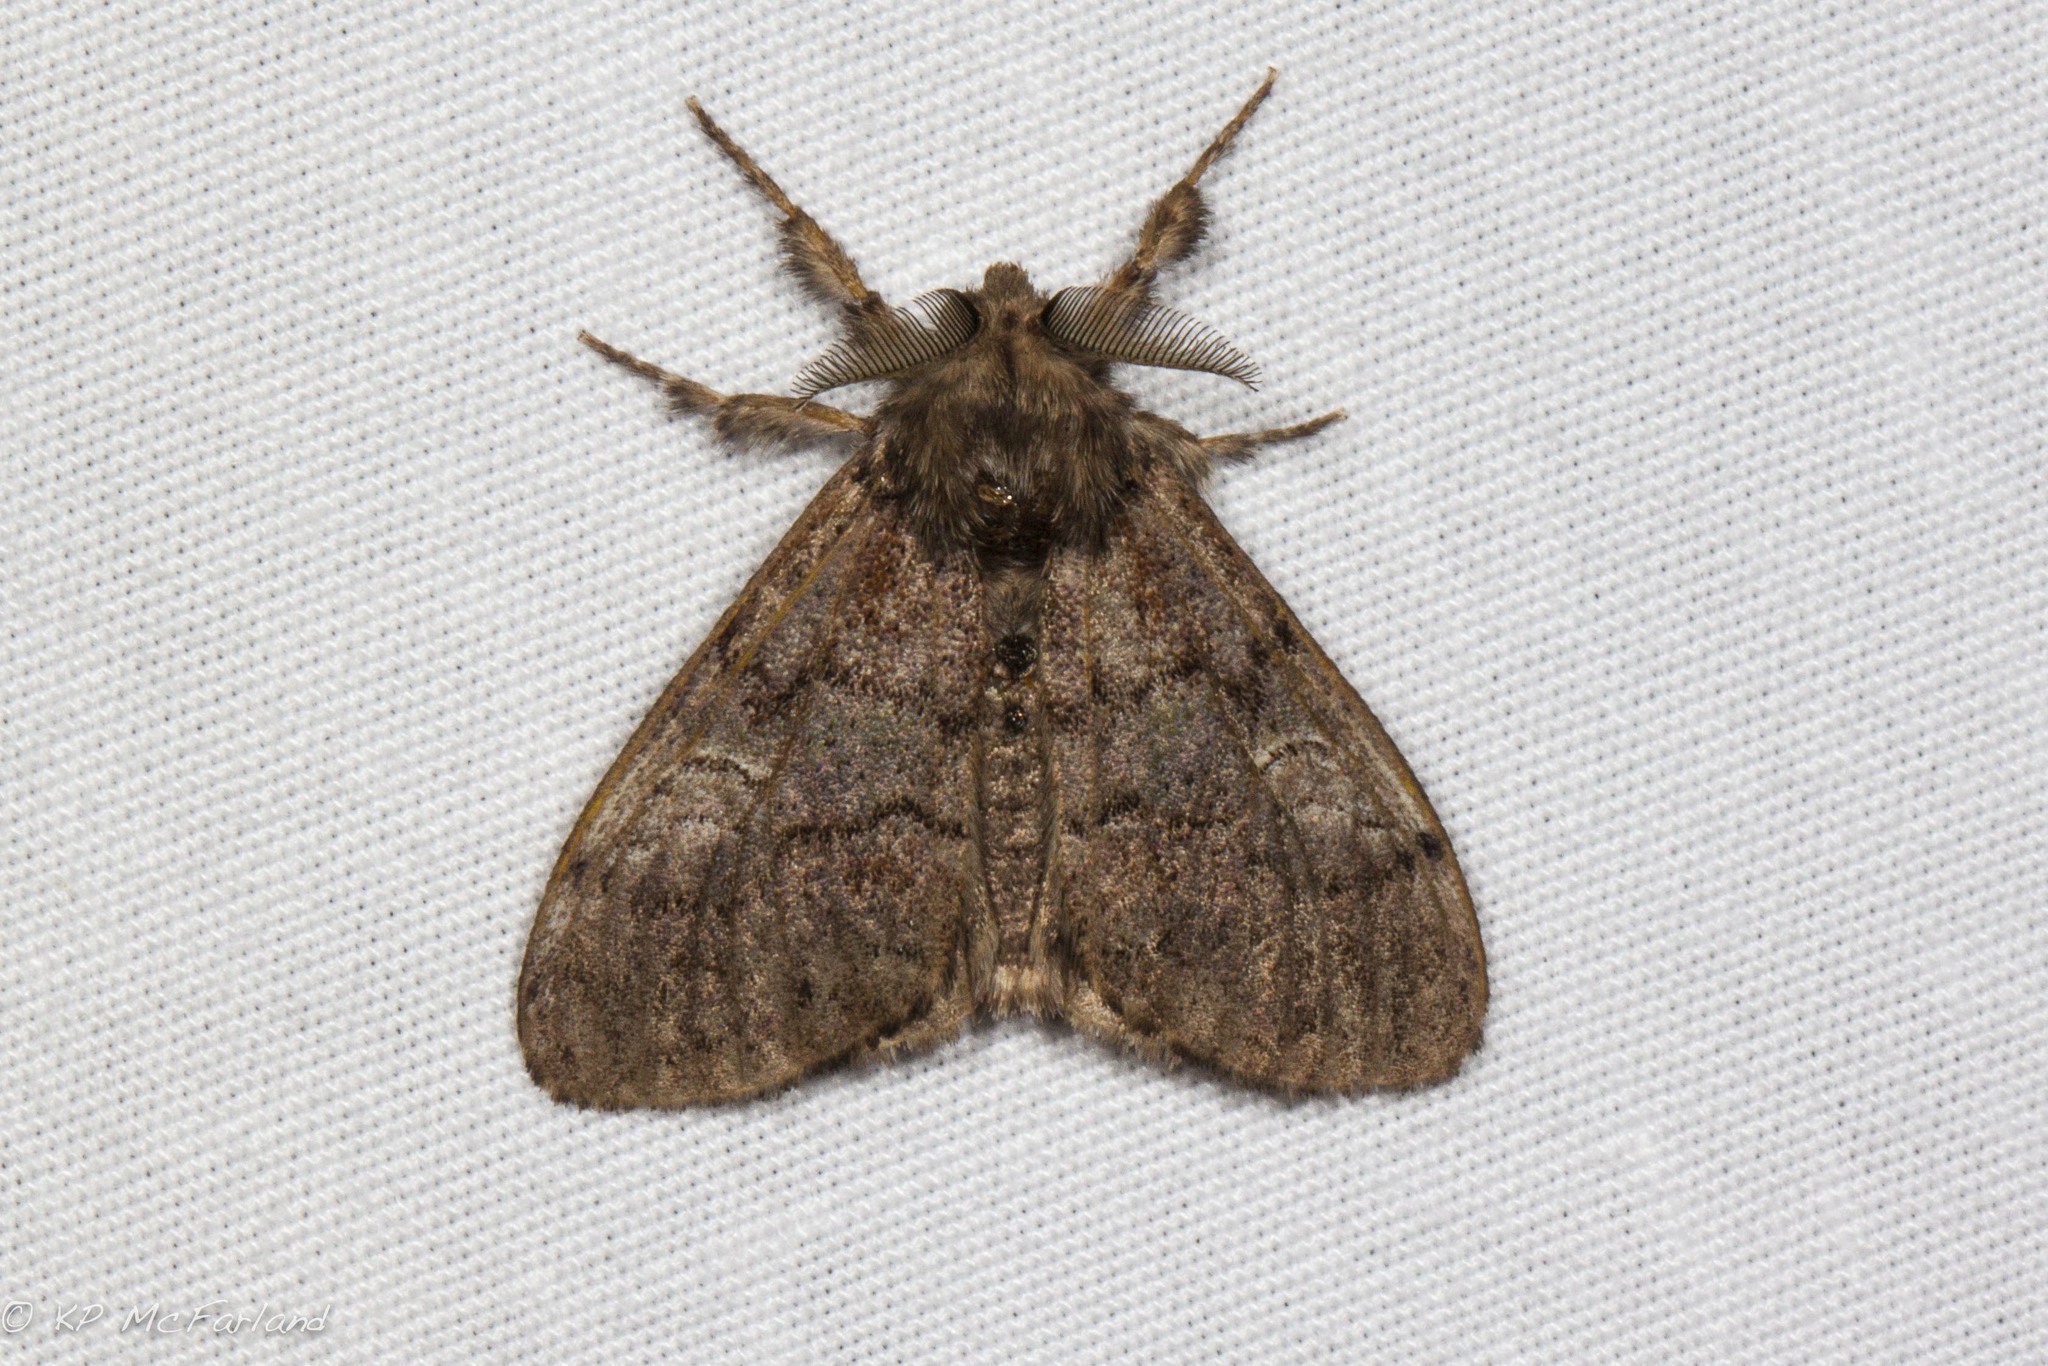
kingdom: Animalia
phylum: Arthropoda
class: Insecta
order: Lepidoptera
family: Erebidae
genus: Dasychira
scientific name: Dasychira vagans
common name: Variable tussock moth
